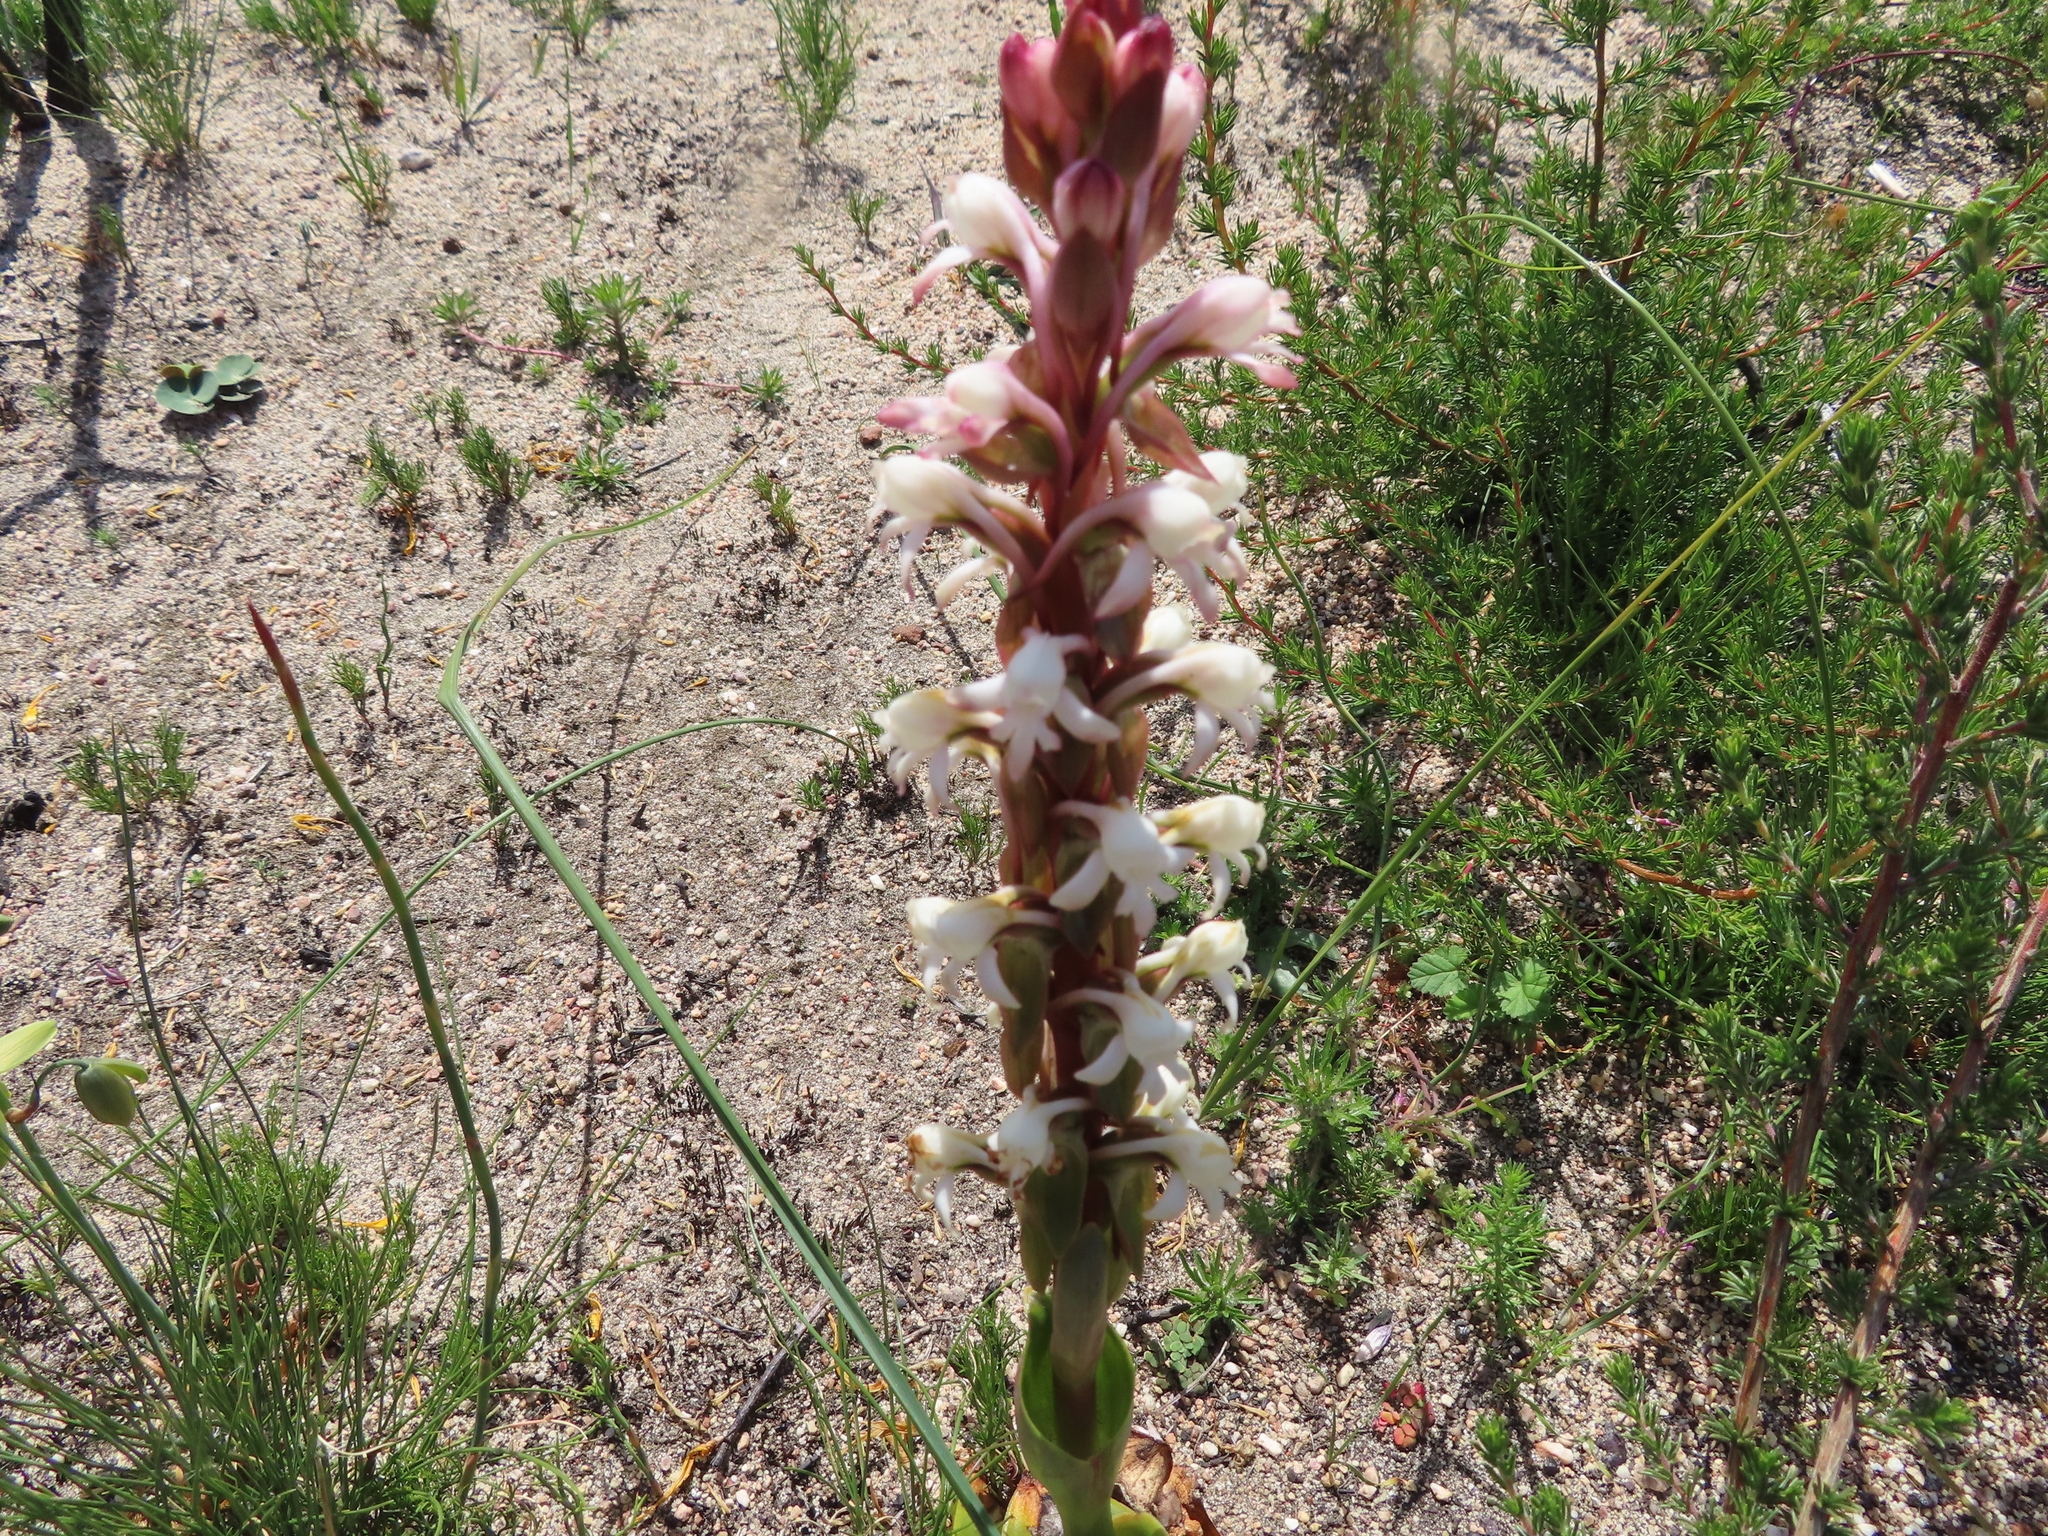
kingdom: Plantae
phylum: Tracheophyta
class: Liliopsida
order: Asparagales
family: Orchidaceae
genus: Satyrium
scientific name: Satyrium candidum
